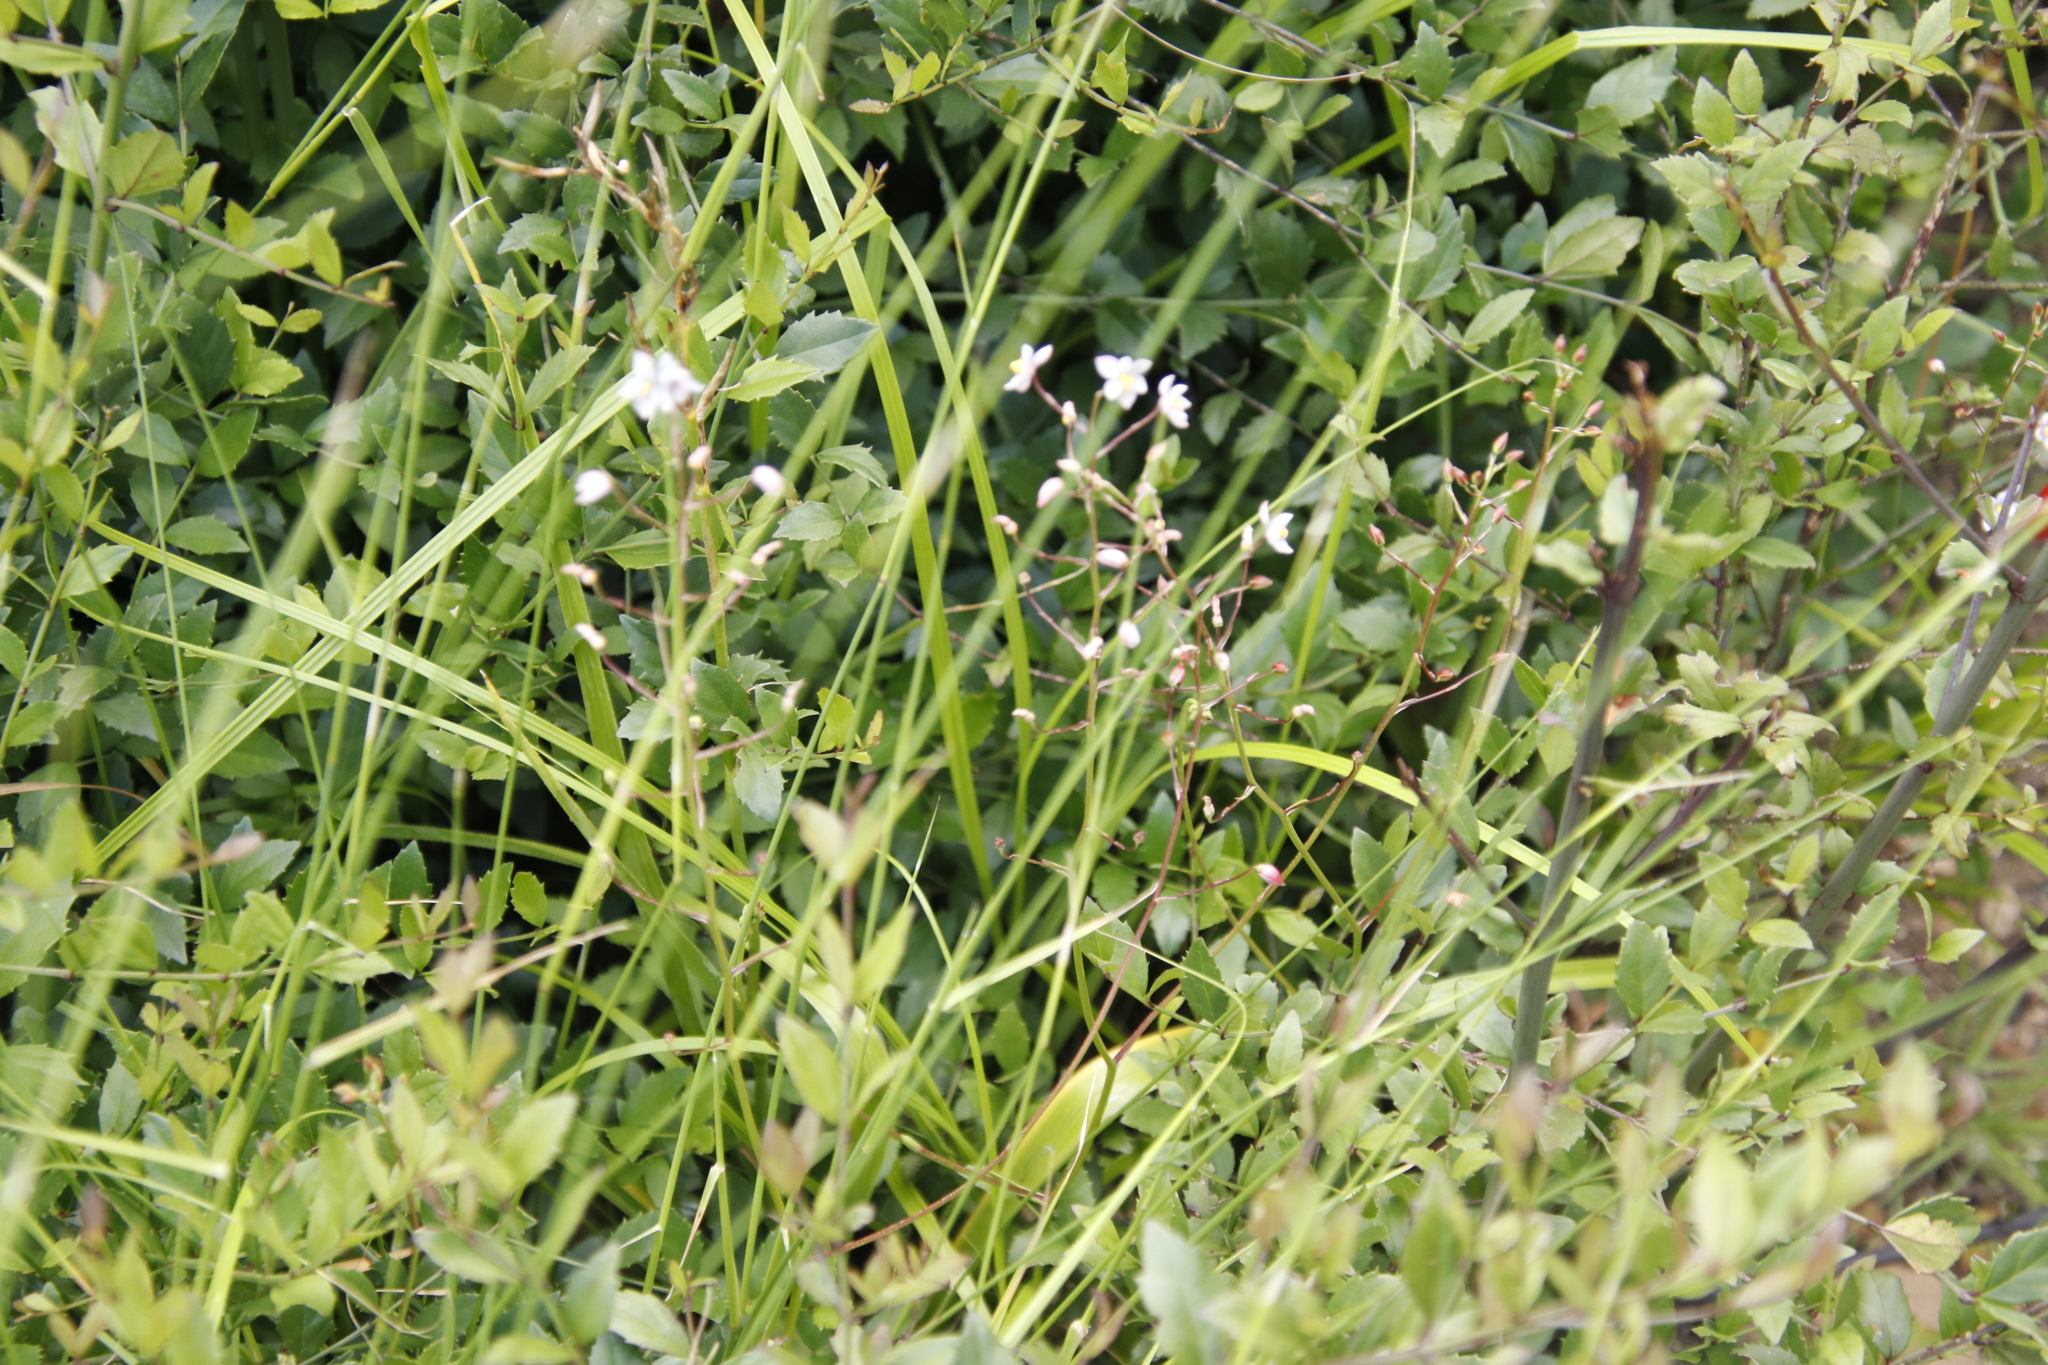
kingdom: Plantae
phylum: Tracheophyta
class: Magnoliopsida
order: Lamiales
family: Stilbaceae
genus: Halleria
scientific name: Halleria elliptica
